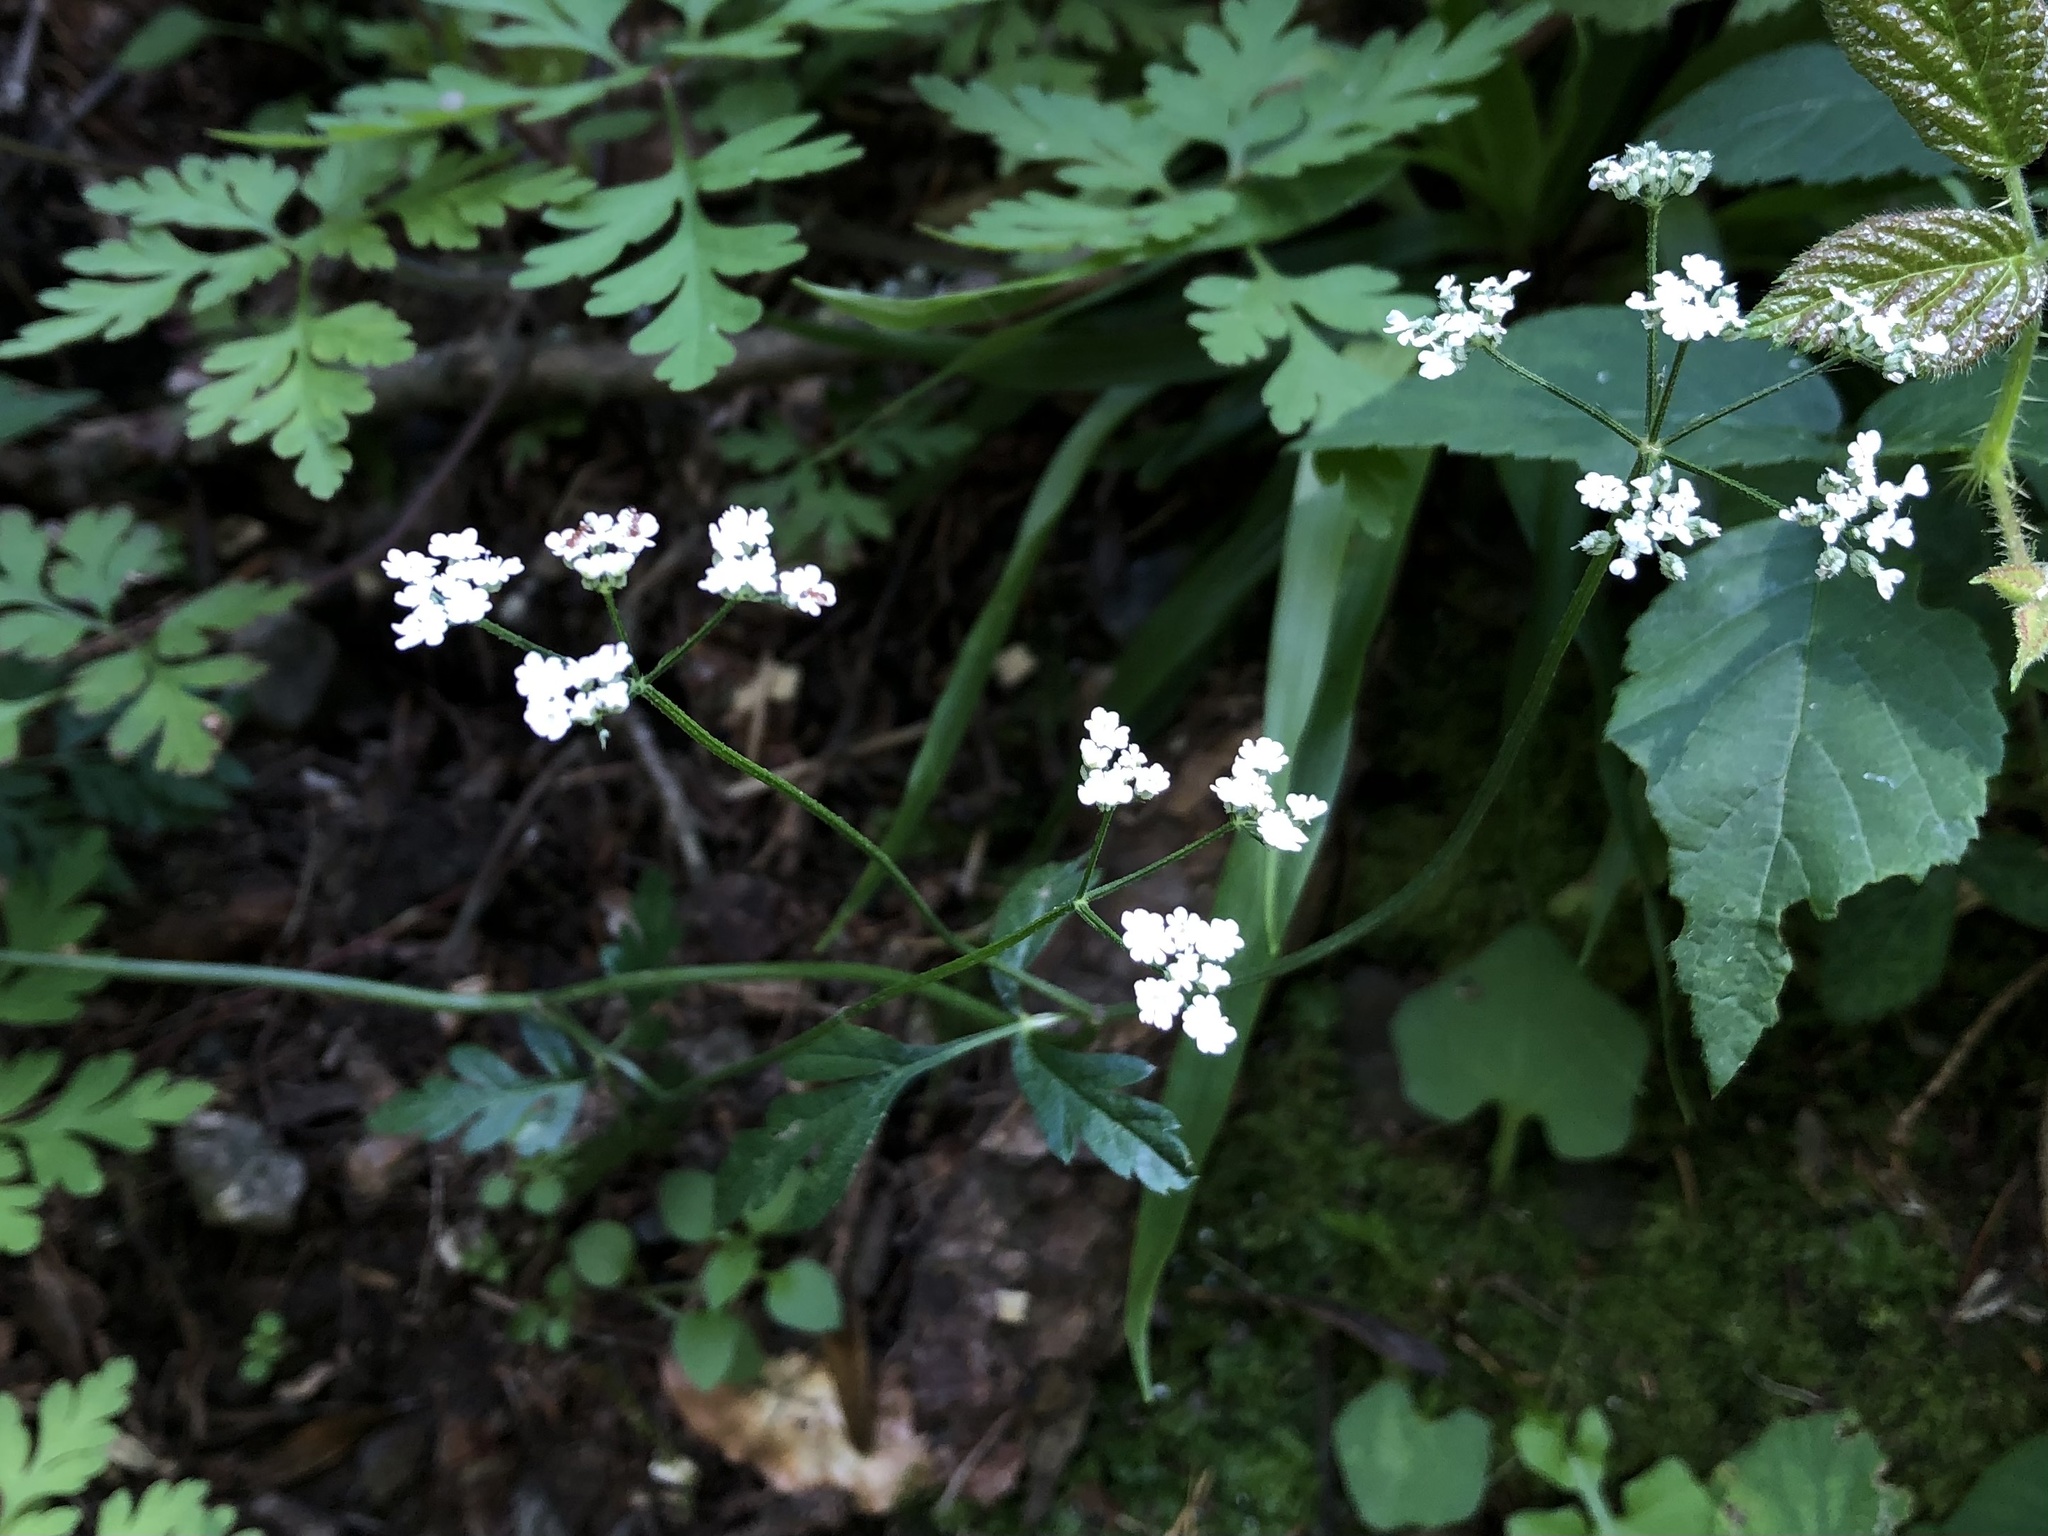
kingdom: Plantae
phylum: Tracheophyta
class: Magnoliopsida
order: Apiales
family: Apiaceae
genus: Torilis
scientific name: Torilis japonica
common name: Upright hedge-parsley
